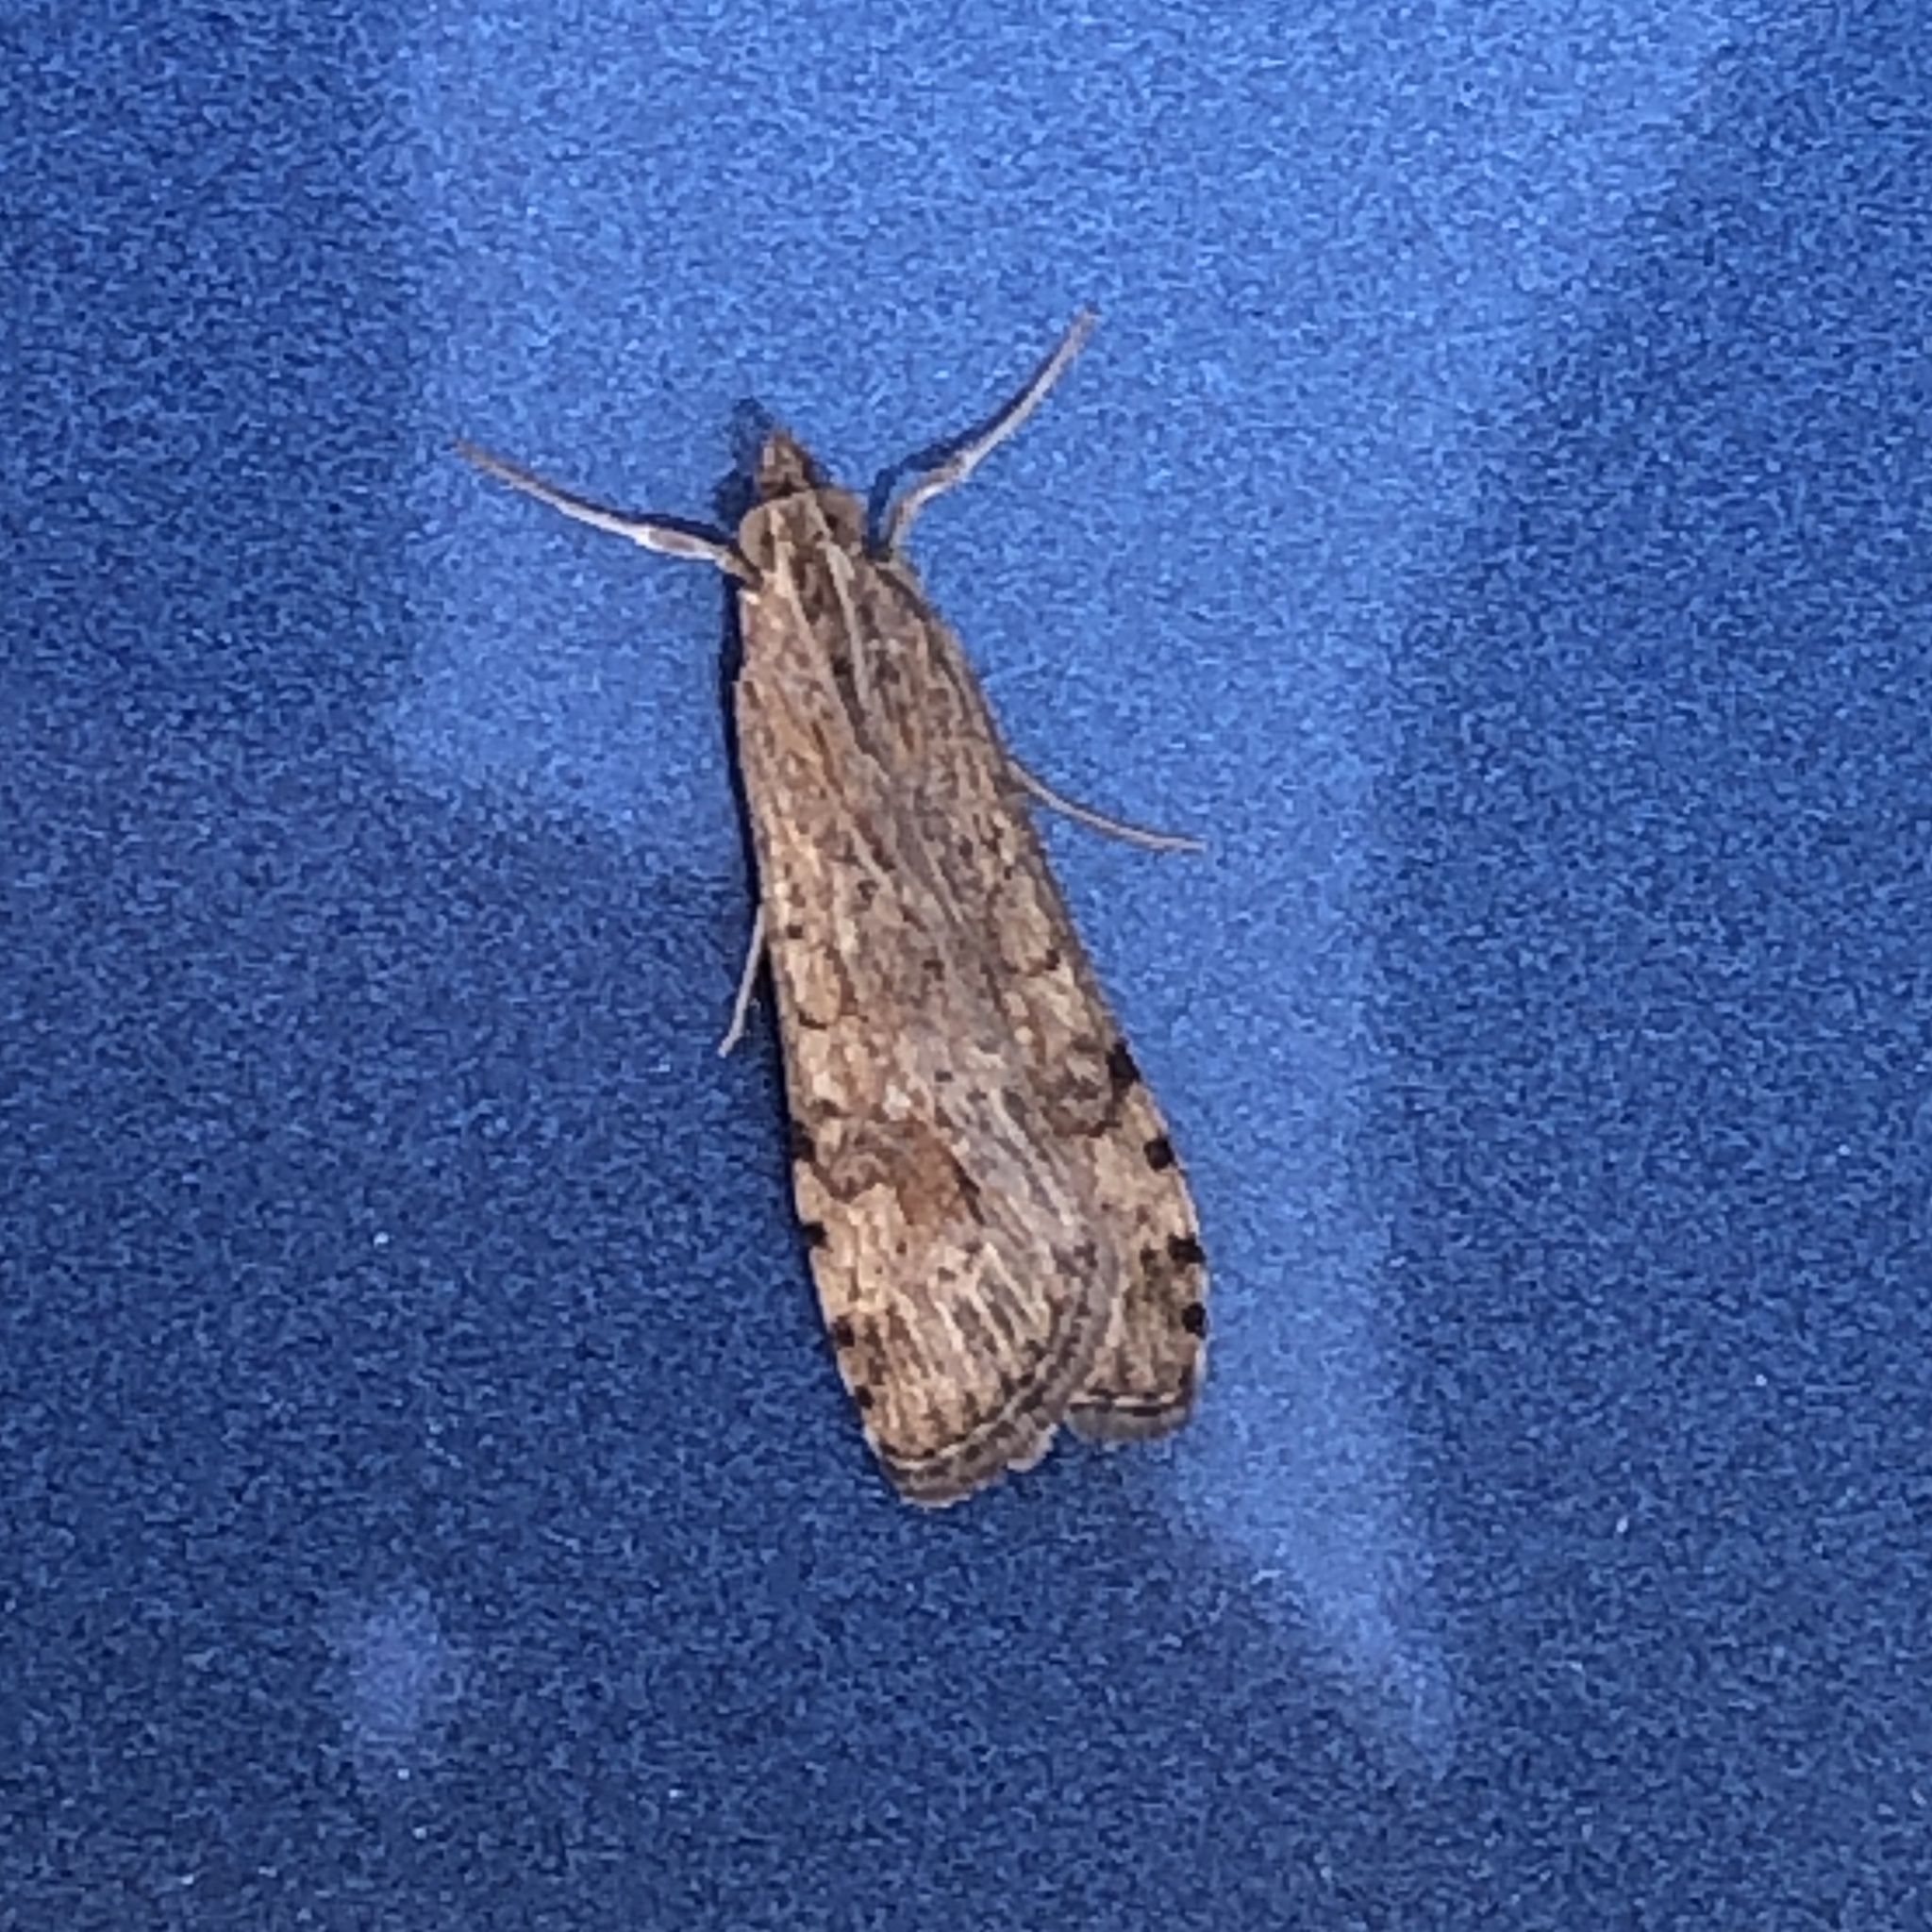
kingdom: Animalia
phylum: Arthropoda
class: Insecta
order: Lepidoptera
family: Crambidae
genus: Nomophila
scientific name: Nomophila nearctica
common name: American rush veneer
